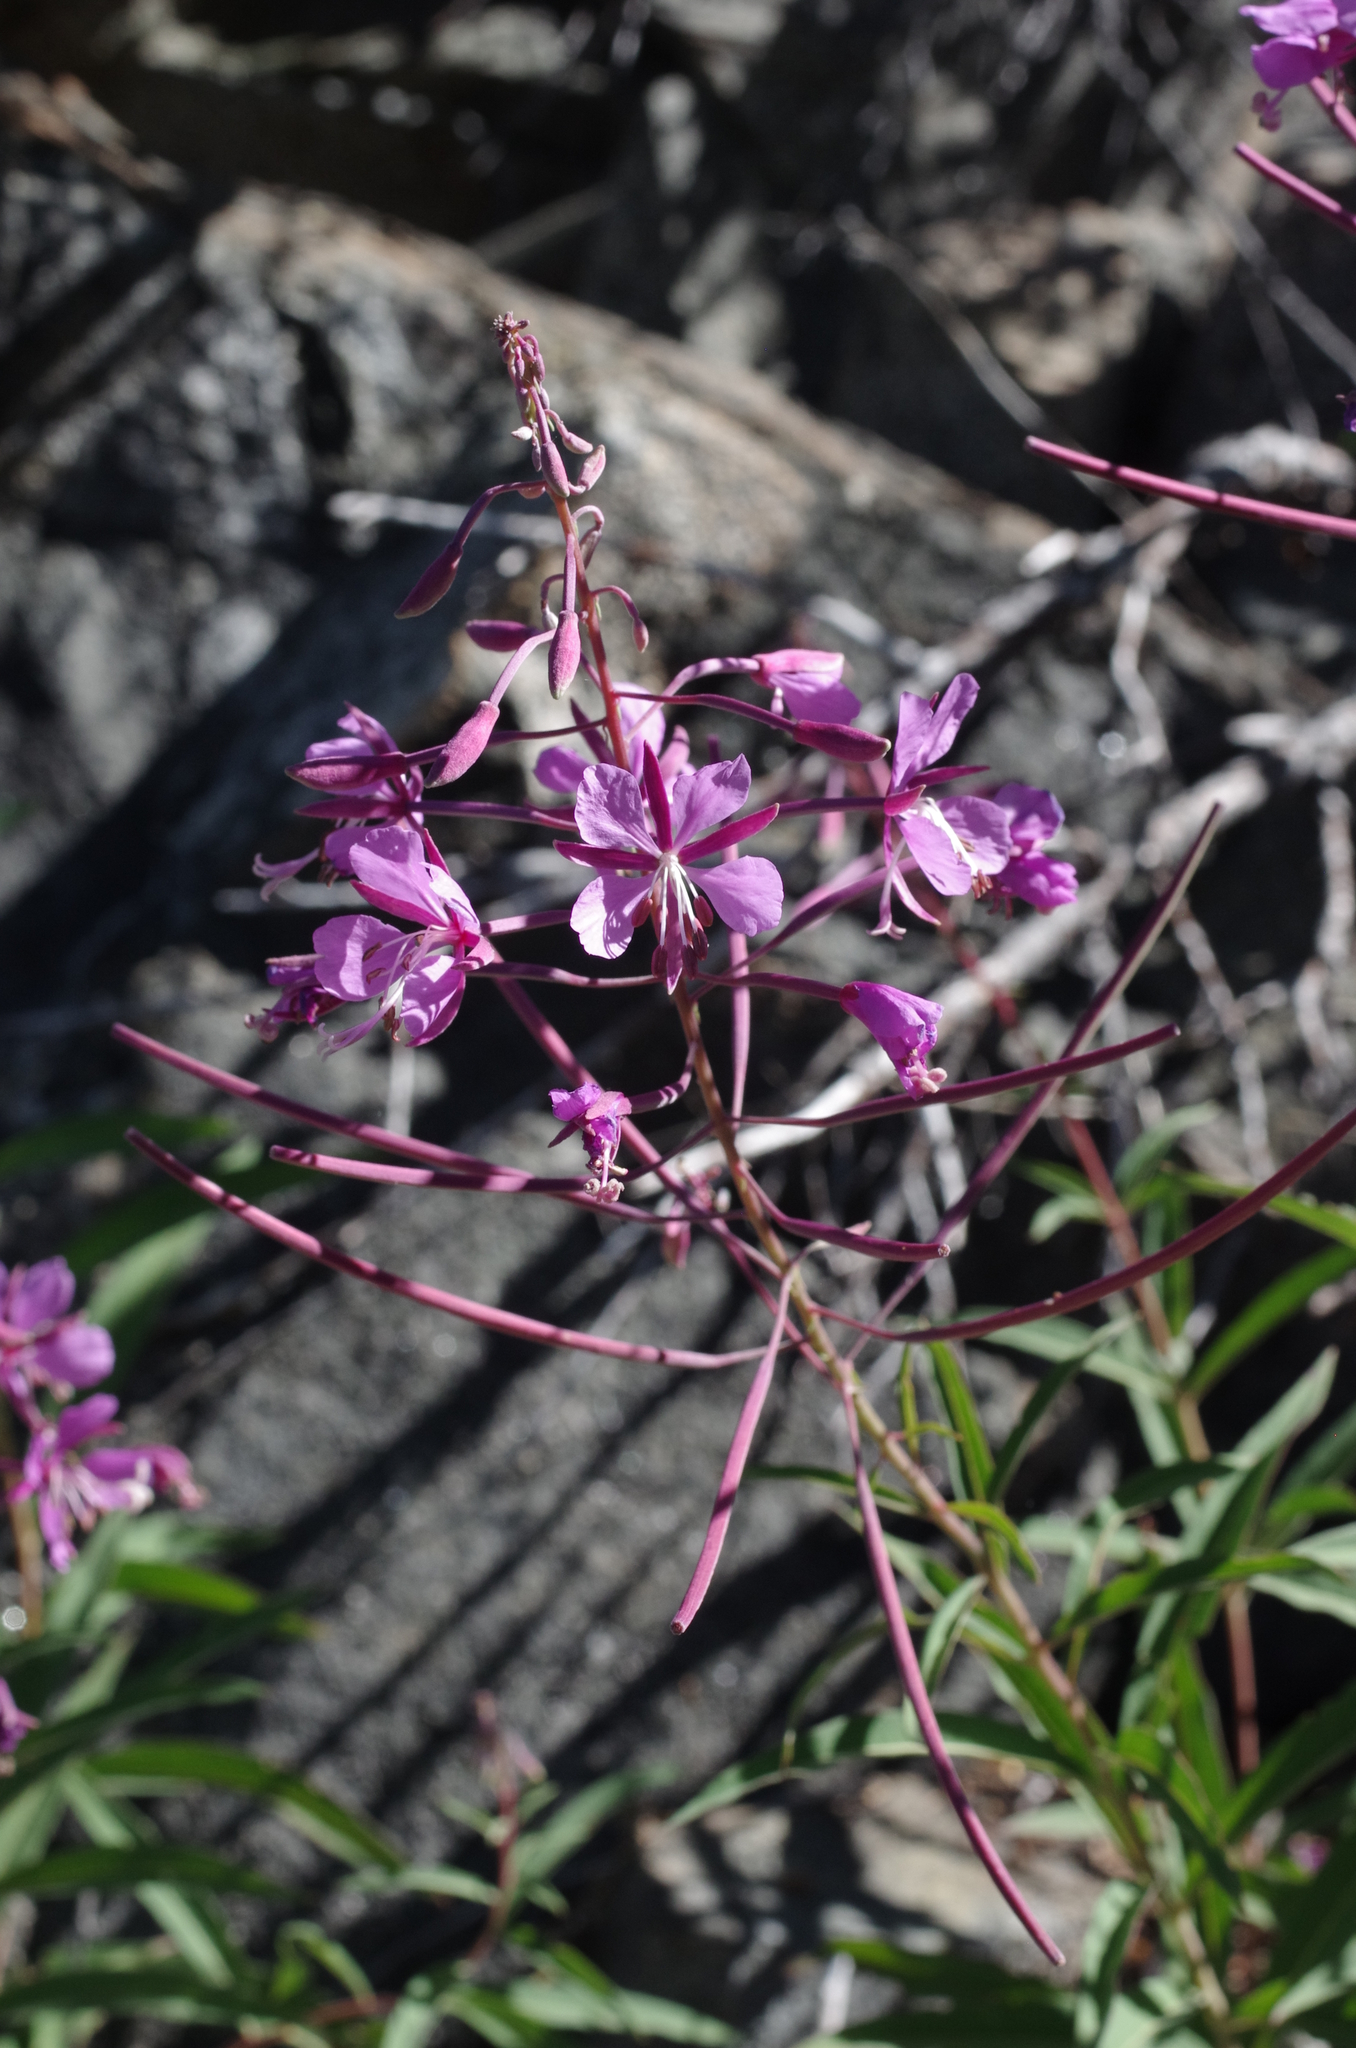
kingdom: Plantae
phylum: Tracheophyta
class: Magnoliopsida
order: Myrtales
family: Onagraceae
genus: Chamaenerion
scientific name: Chamaenerion angustifolium
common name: Fireweed
